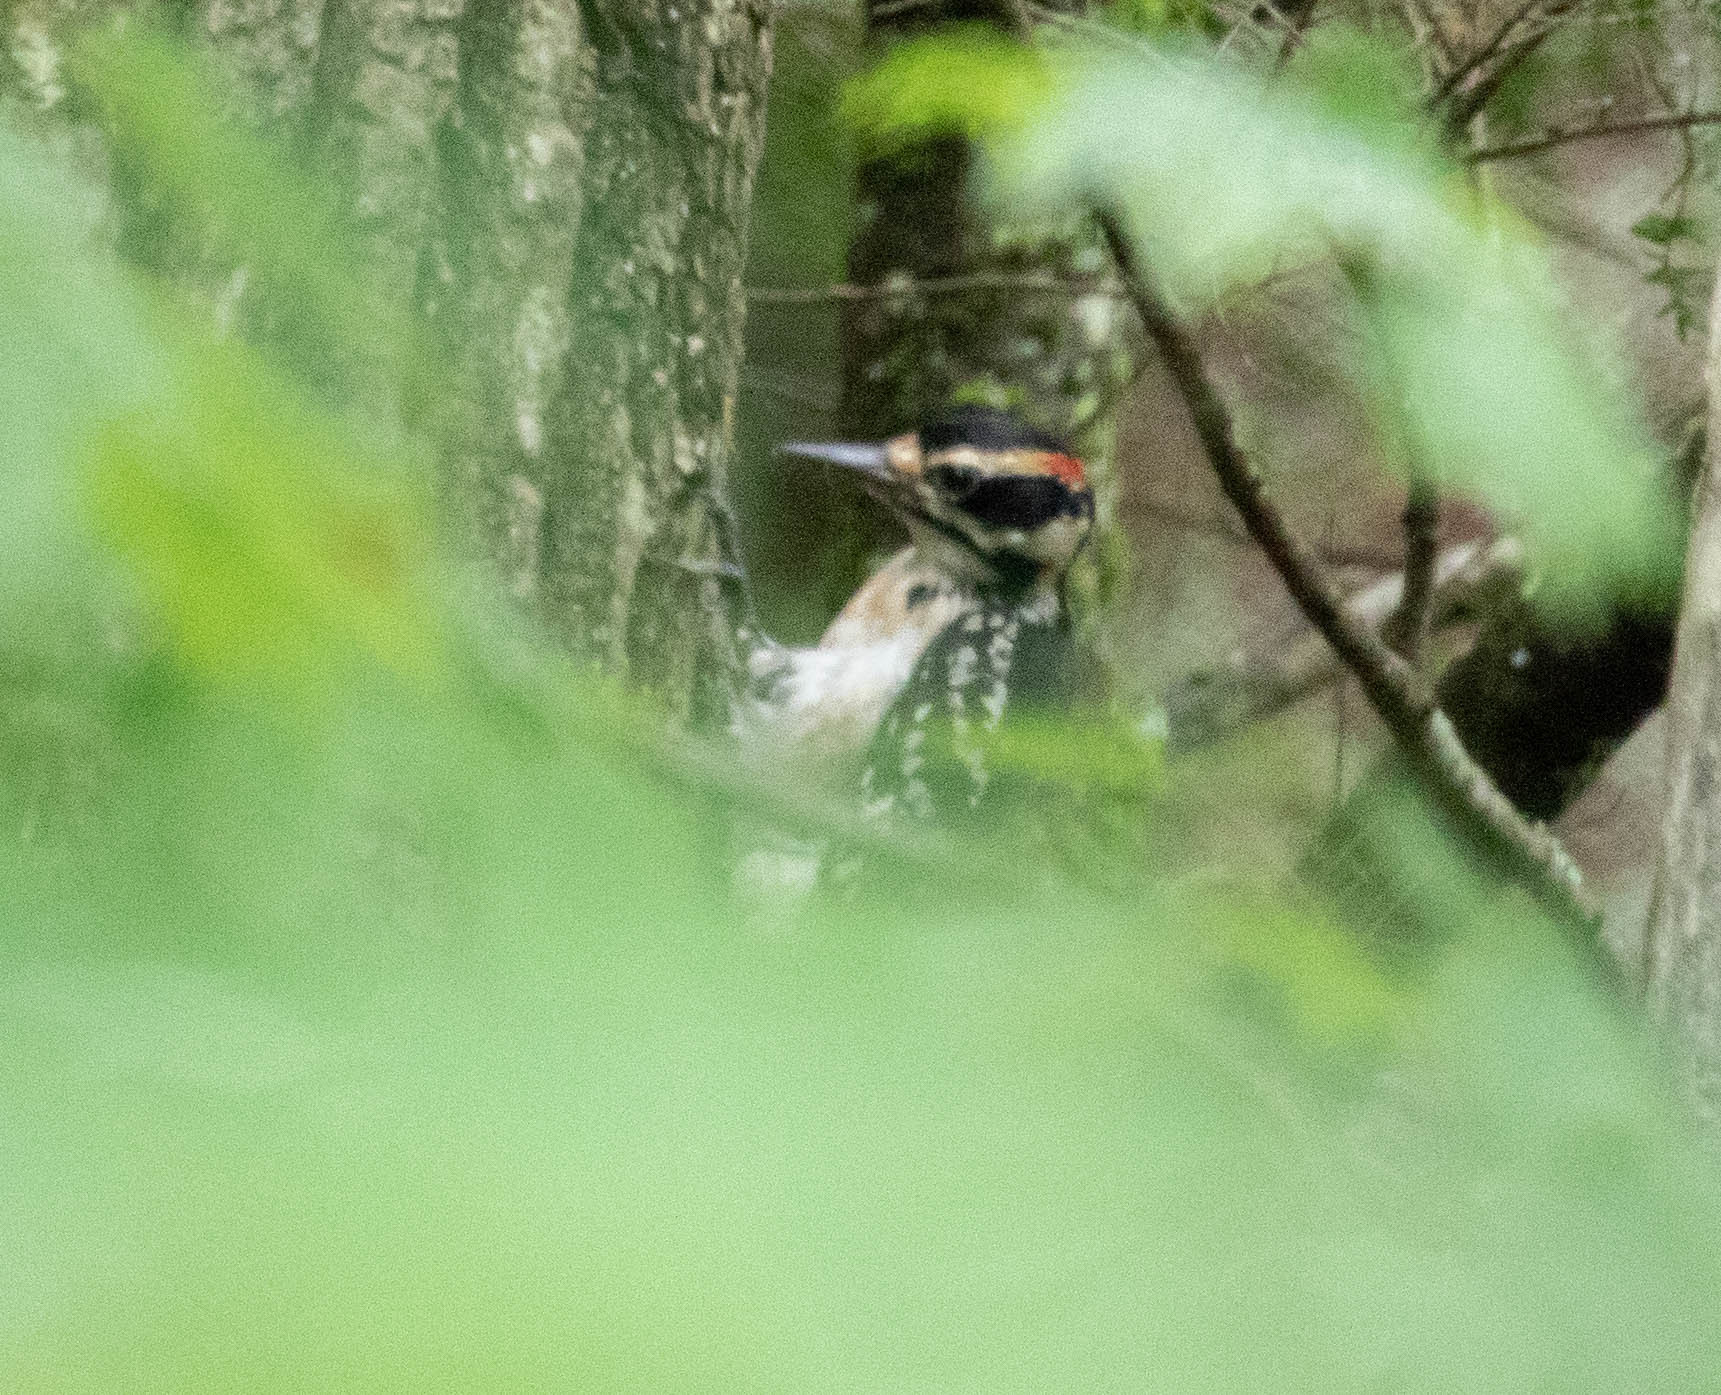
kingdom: Animalia
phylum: Chordata
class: Aves
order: Piciformes
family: Picidae
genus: Leuconotopicus
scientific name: Leuconotopicus villosus
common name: Hairy woodpecker
